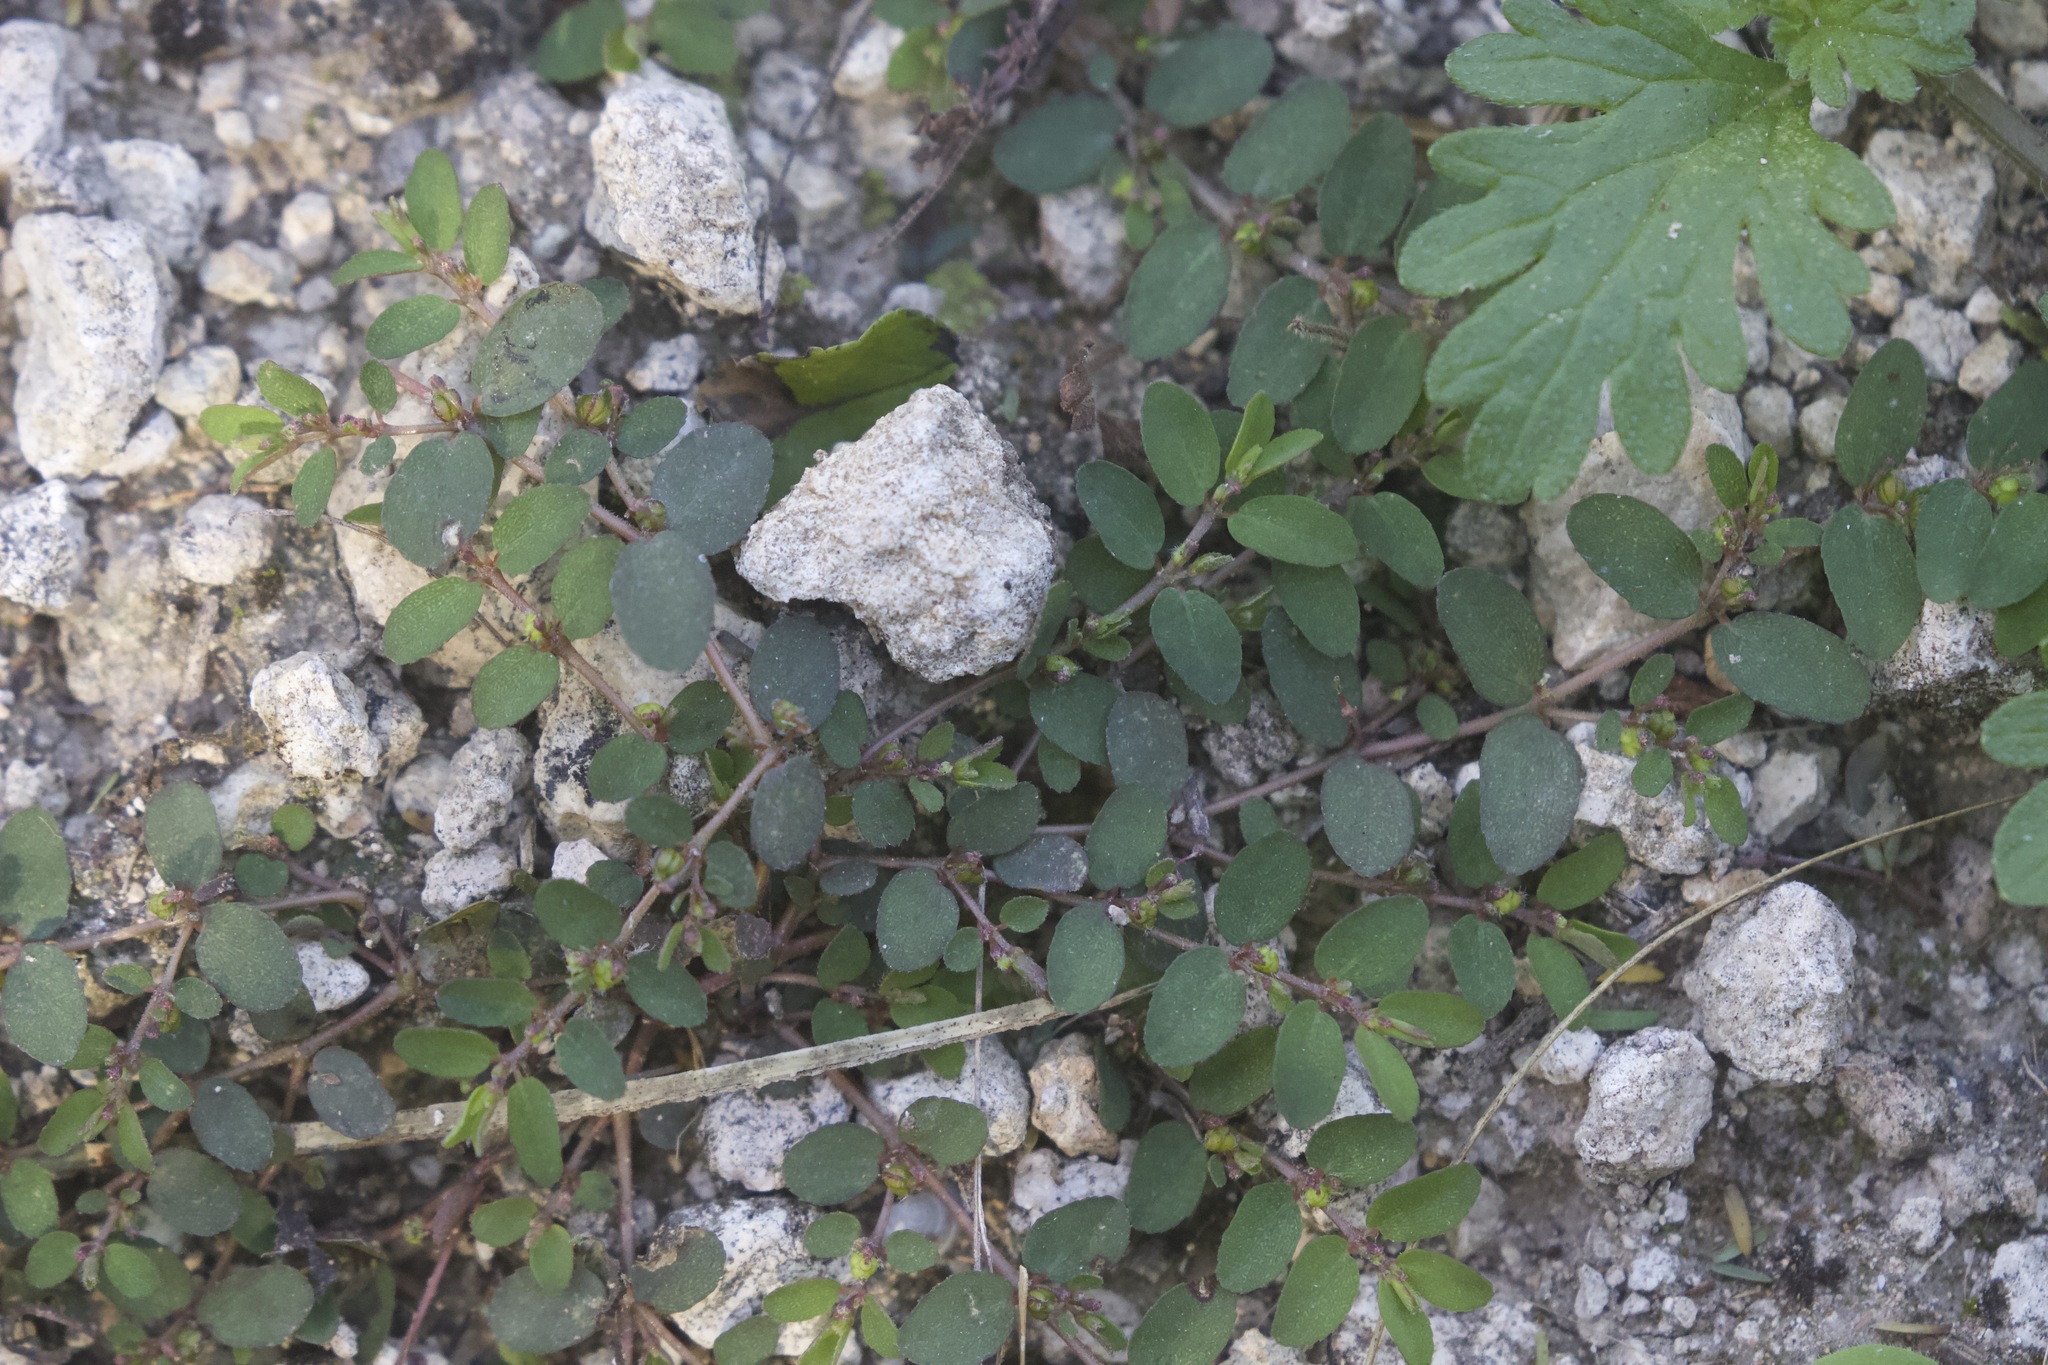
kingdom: Plantae
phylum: Tracheophyta
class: Magnoliopsida
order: Malpighiales
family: Euphorbiaceae
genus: Euphorbia
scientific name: Euphorbia prostrata
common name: Prostrate sandmat
